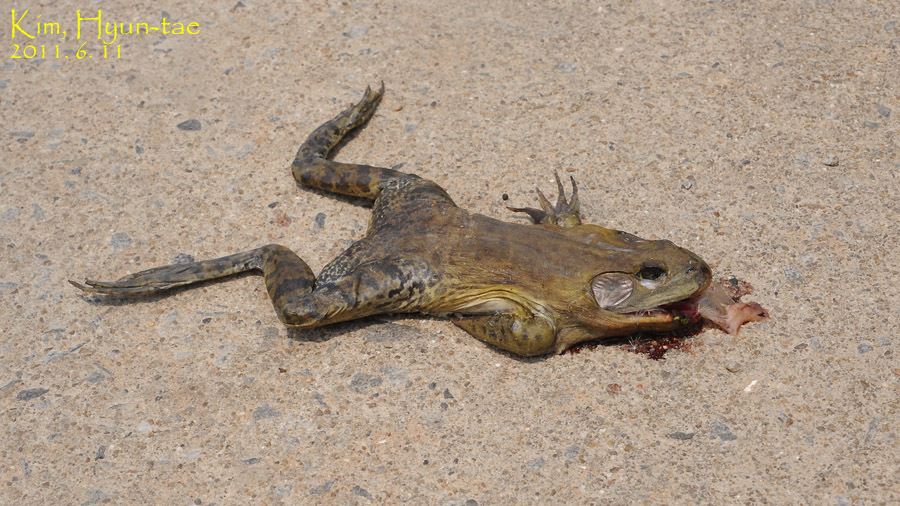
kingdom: Animalia
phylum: Chordata
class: Amphibia
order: Anura
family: Ranidae
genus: Lithobates
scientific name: Lithobates catesbeianus
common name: American bullfrog
